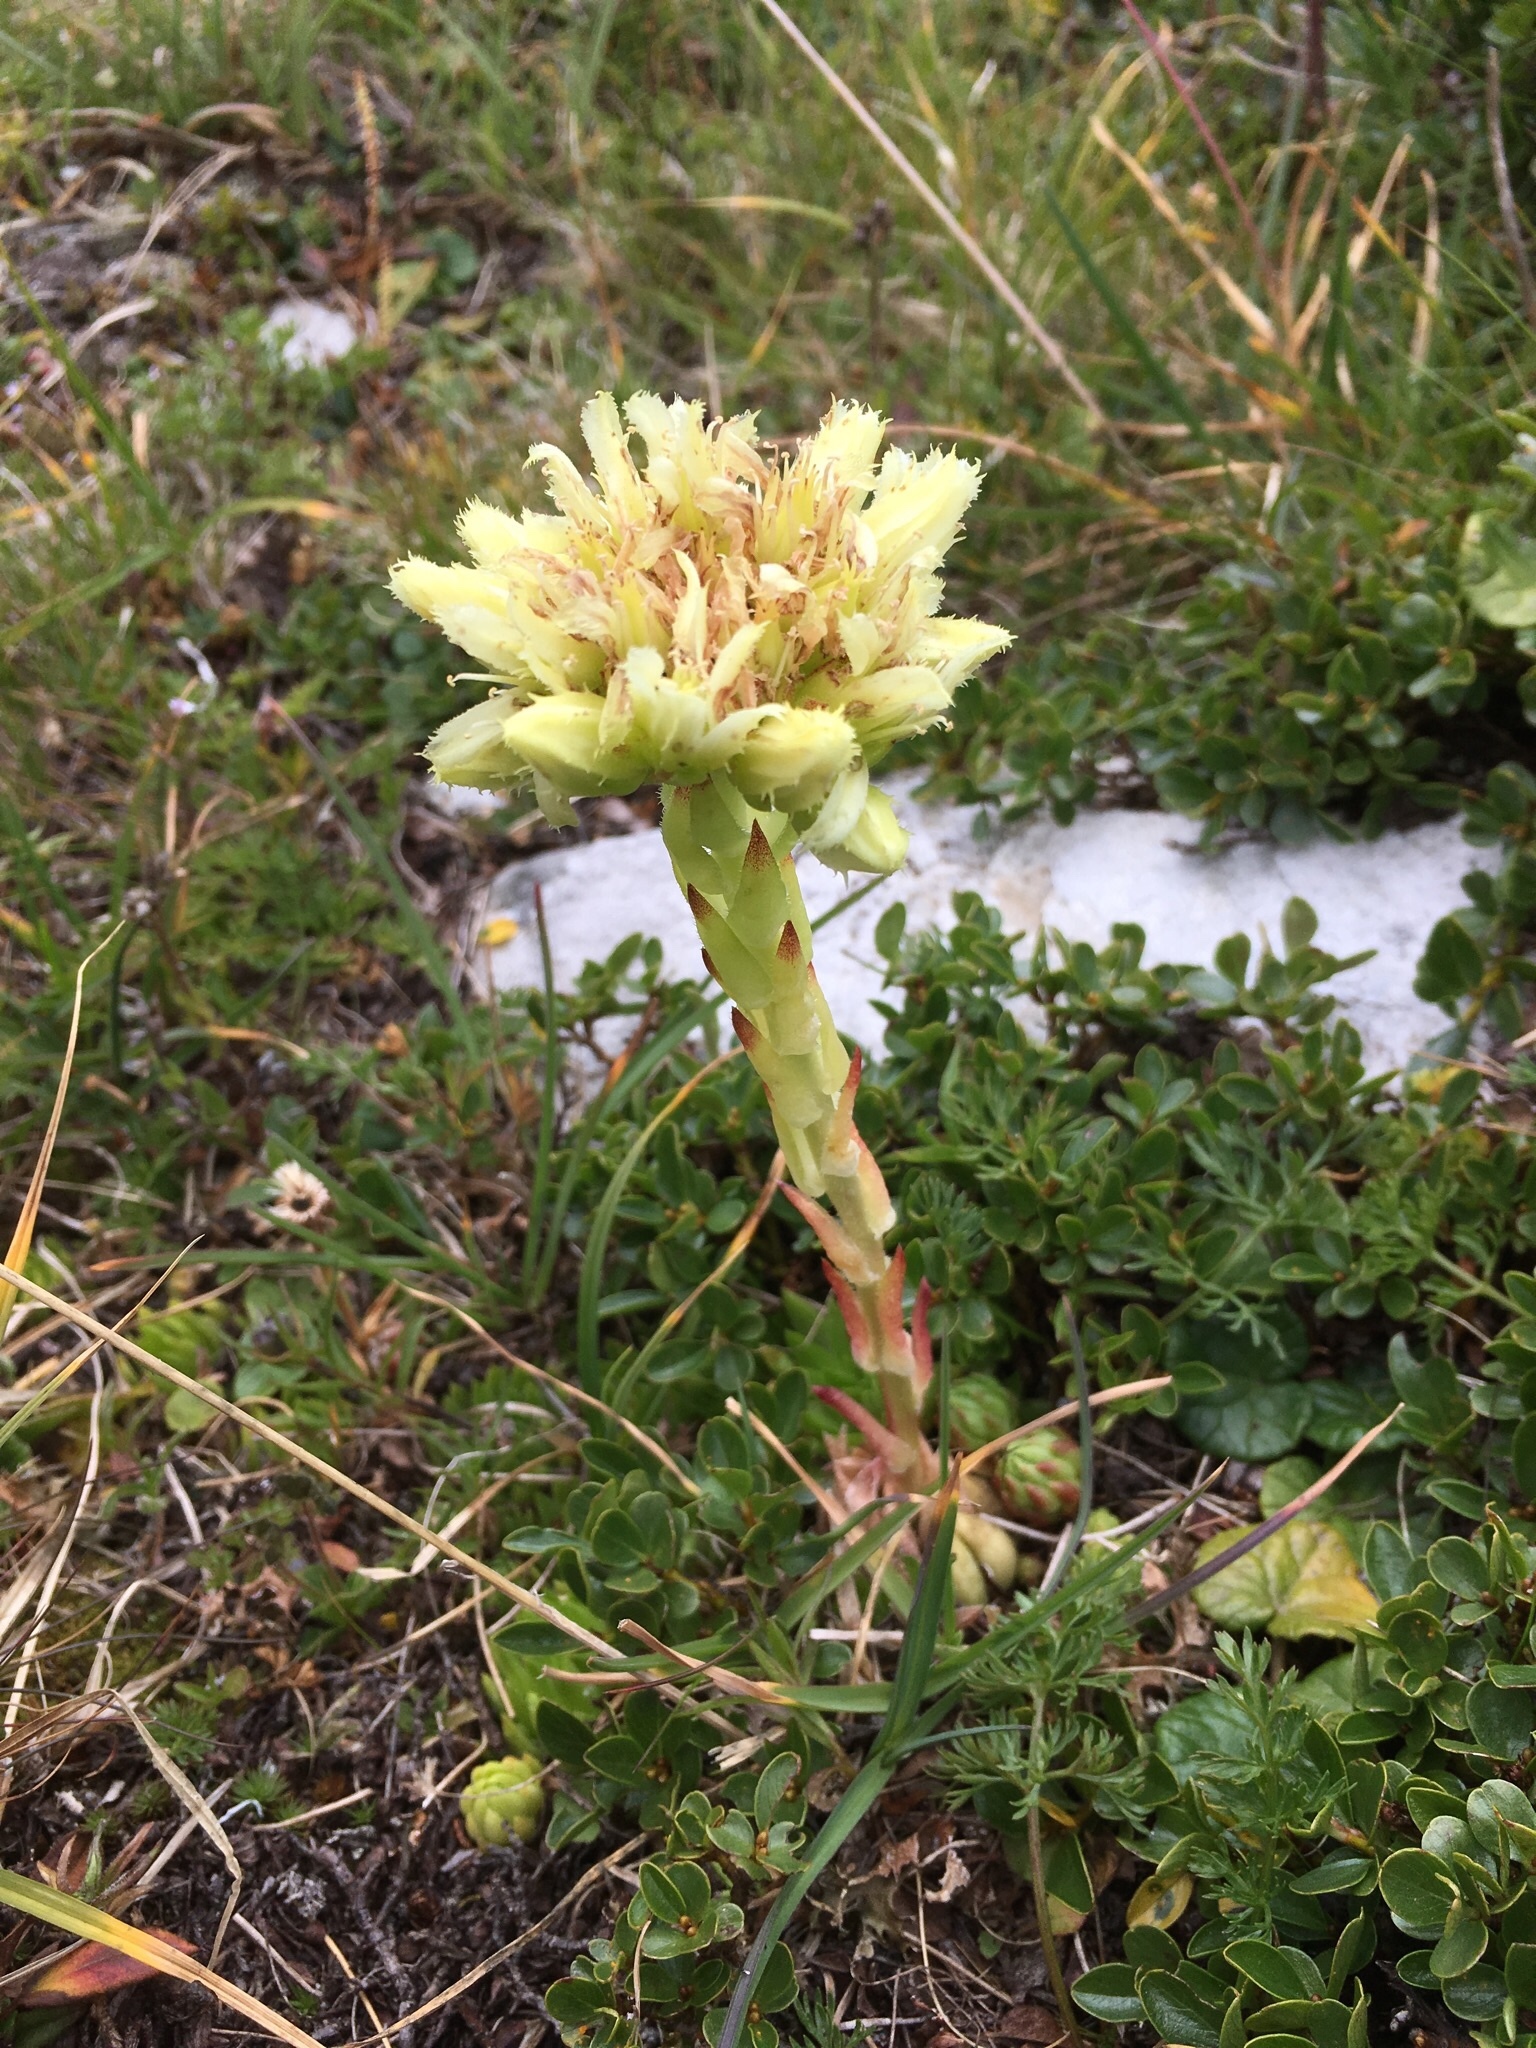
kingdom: Plantae
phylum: Tracheophyta
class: Magnoliopsida
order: Saxifragales
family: Crassulaceae
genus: Sempervivum
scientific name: Sempervivum globiferum
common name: Rolling hen-and-chicks
